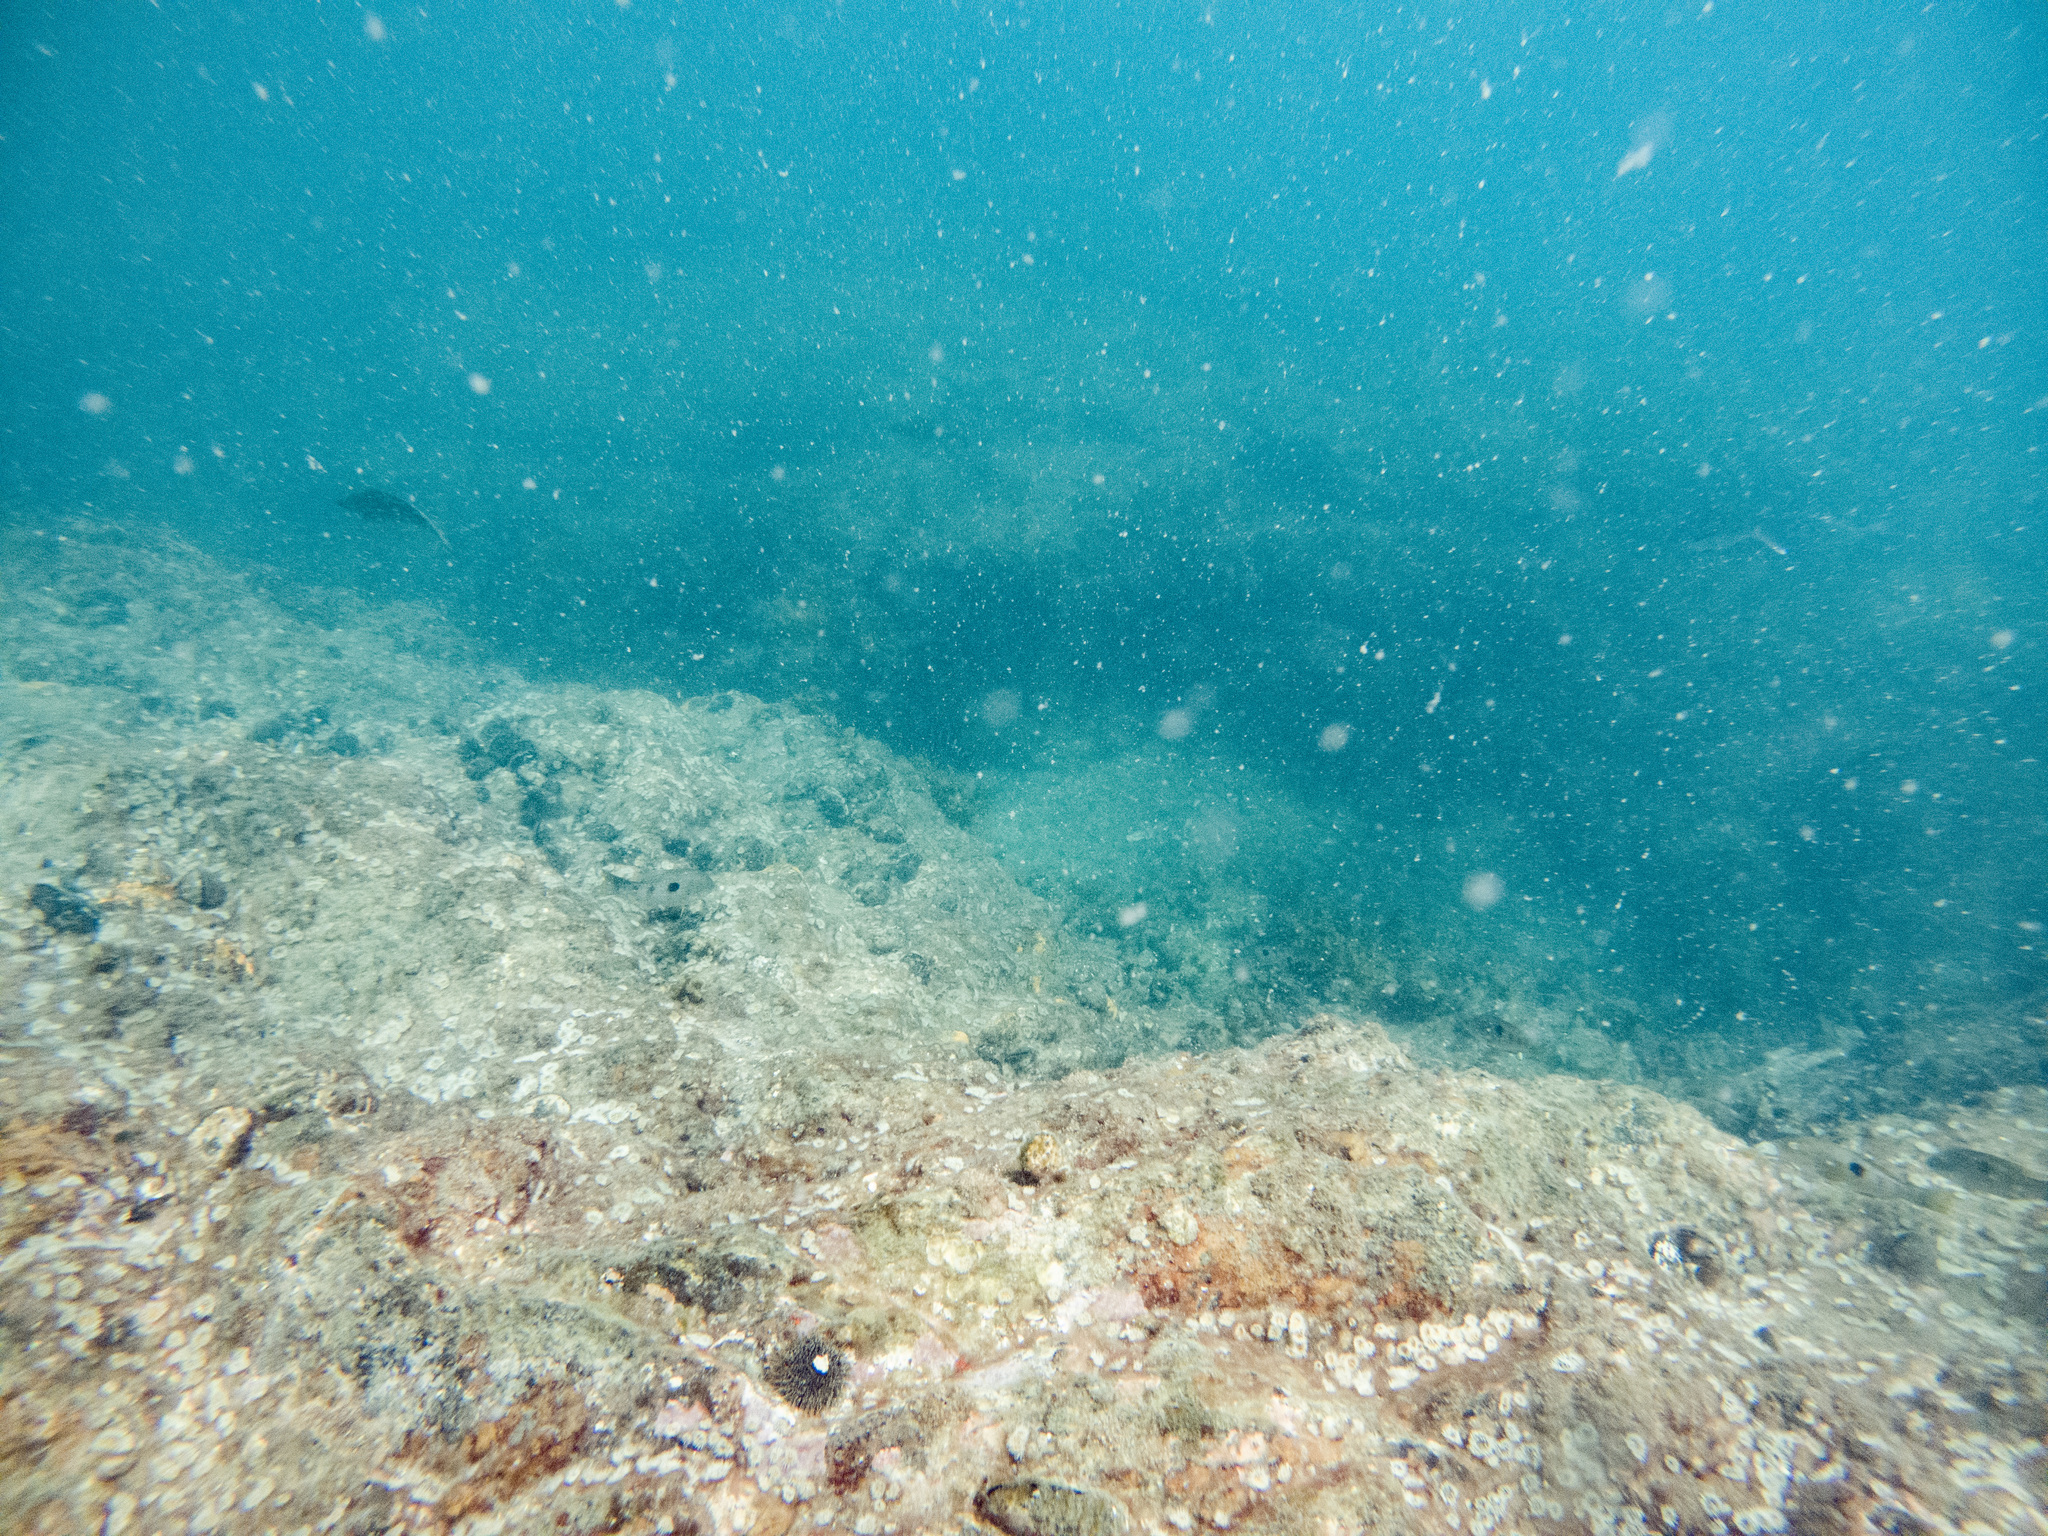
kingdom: Animalia
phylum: Echinodermata
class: Echinoidea
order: Camarodonta
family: Echinometridae
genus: Evechinus
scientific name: Evechinus chloroticus
